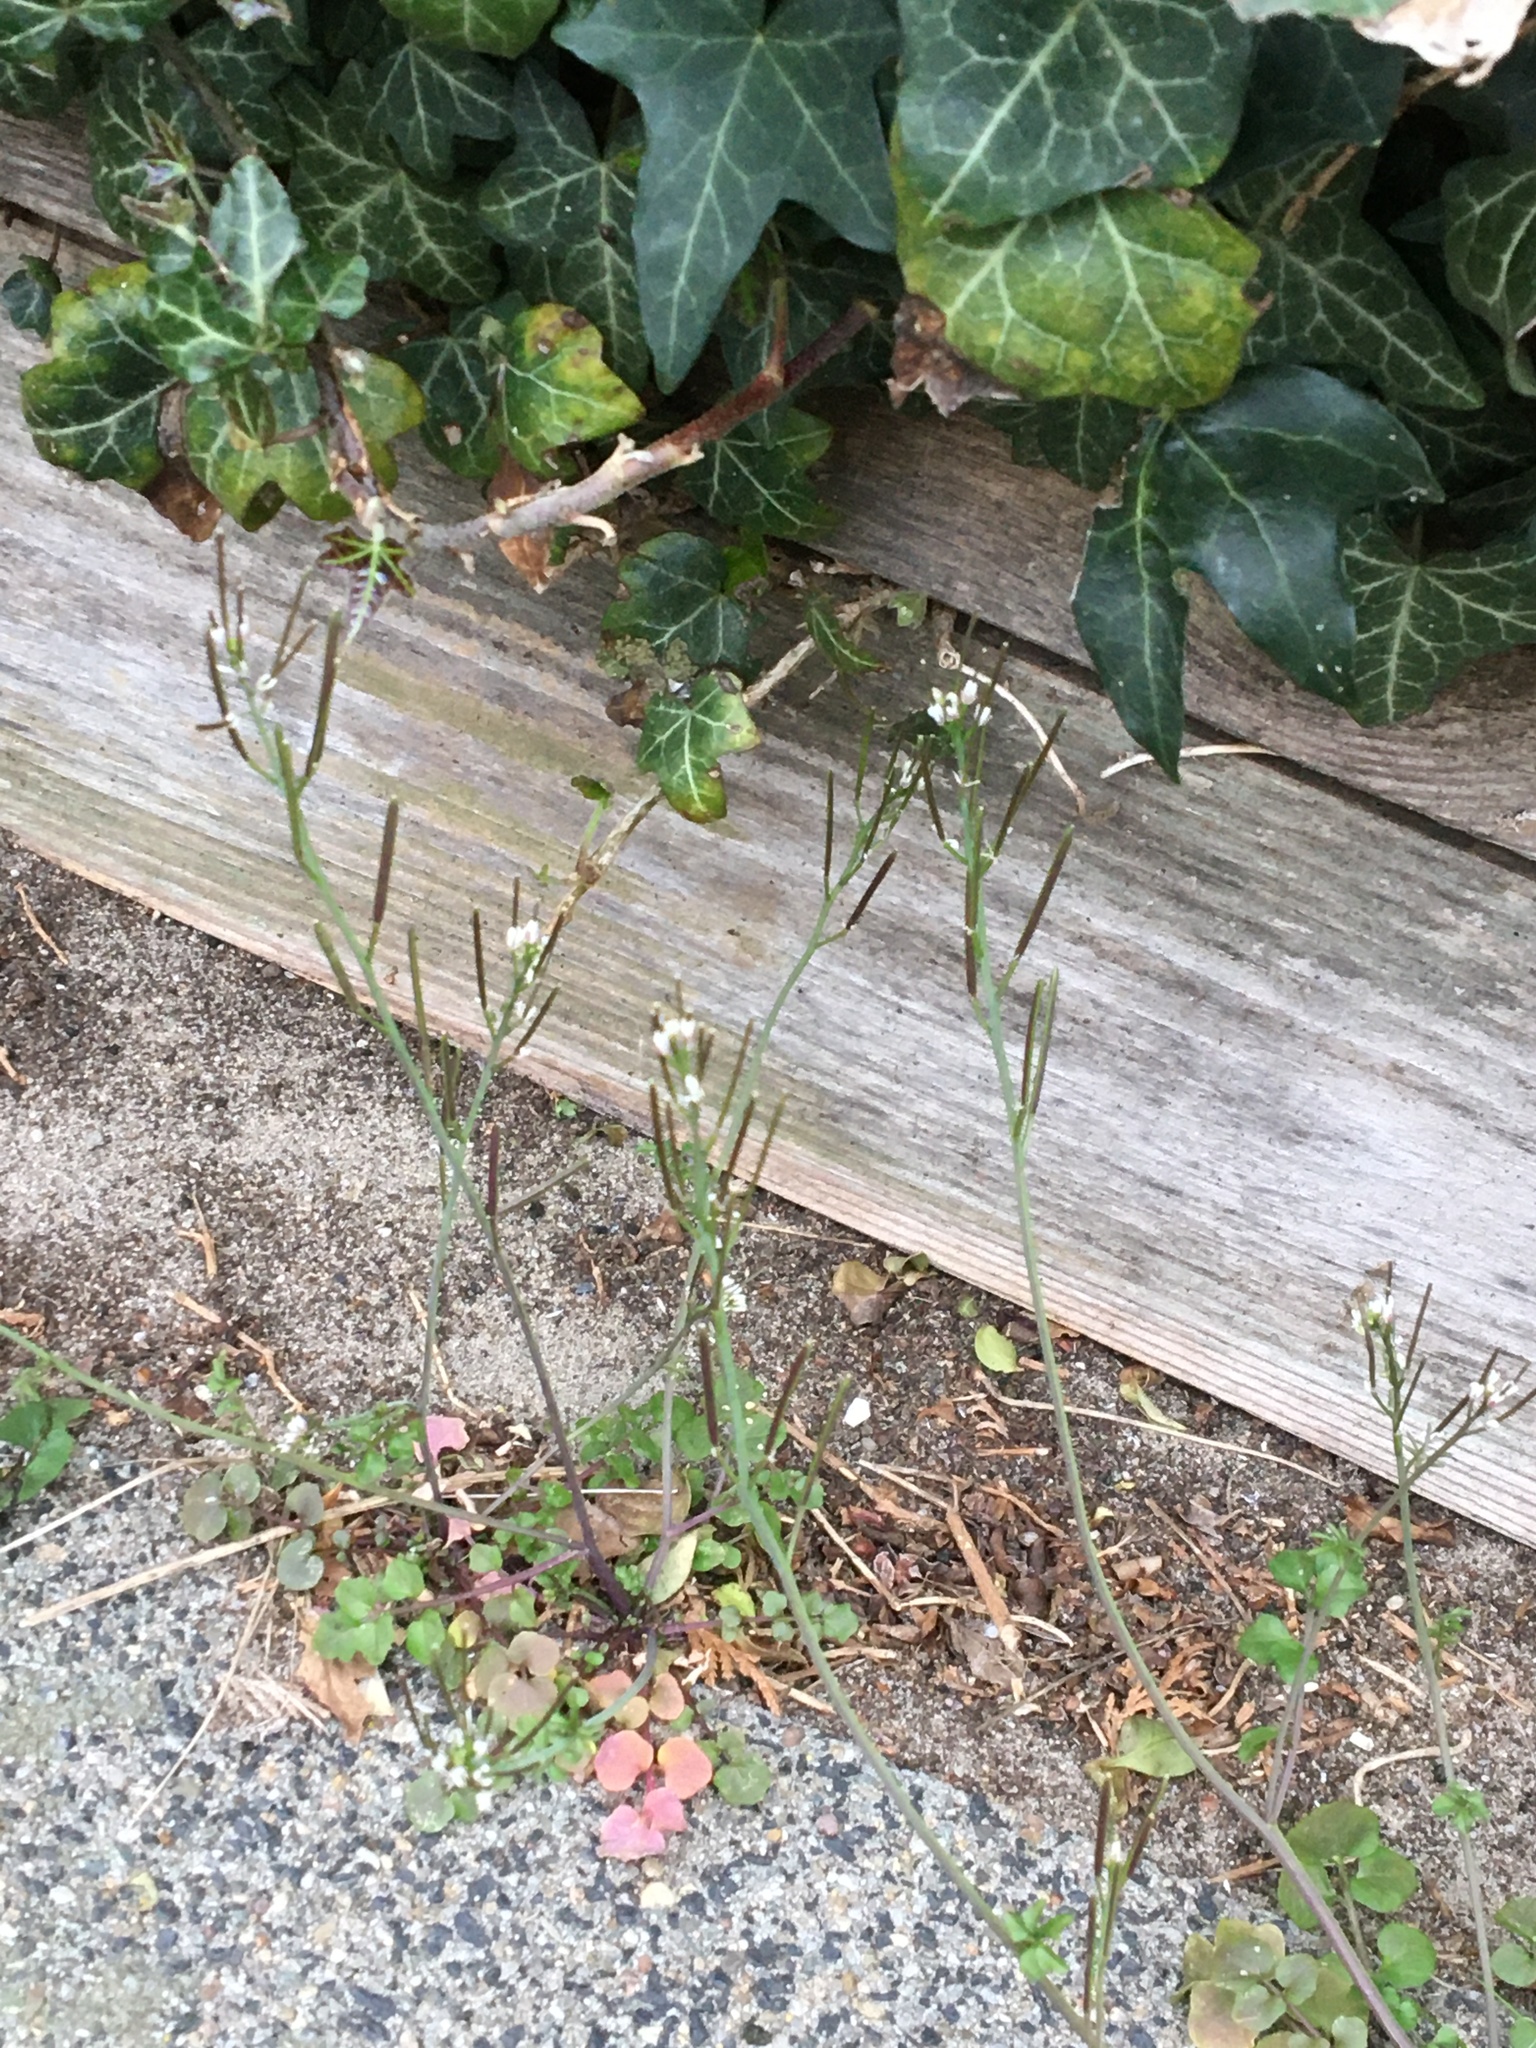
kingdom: Plantae
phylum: Tracheophyta
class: Magnoliopsida
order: Brassicales
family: Brassicaceae
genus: Cardamine
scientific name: Cardamine hirsuta
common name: Hairy bittercress
